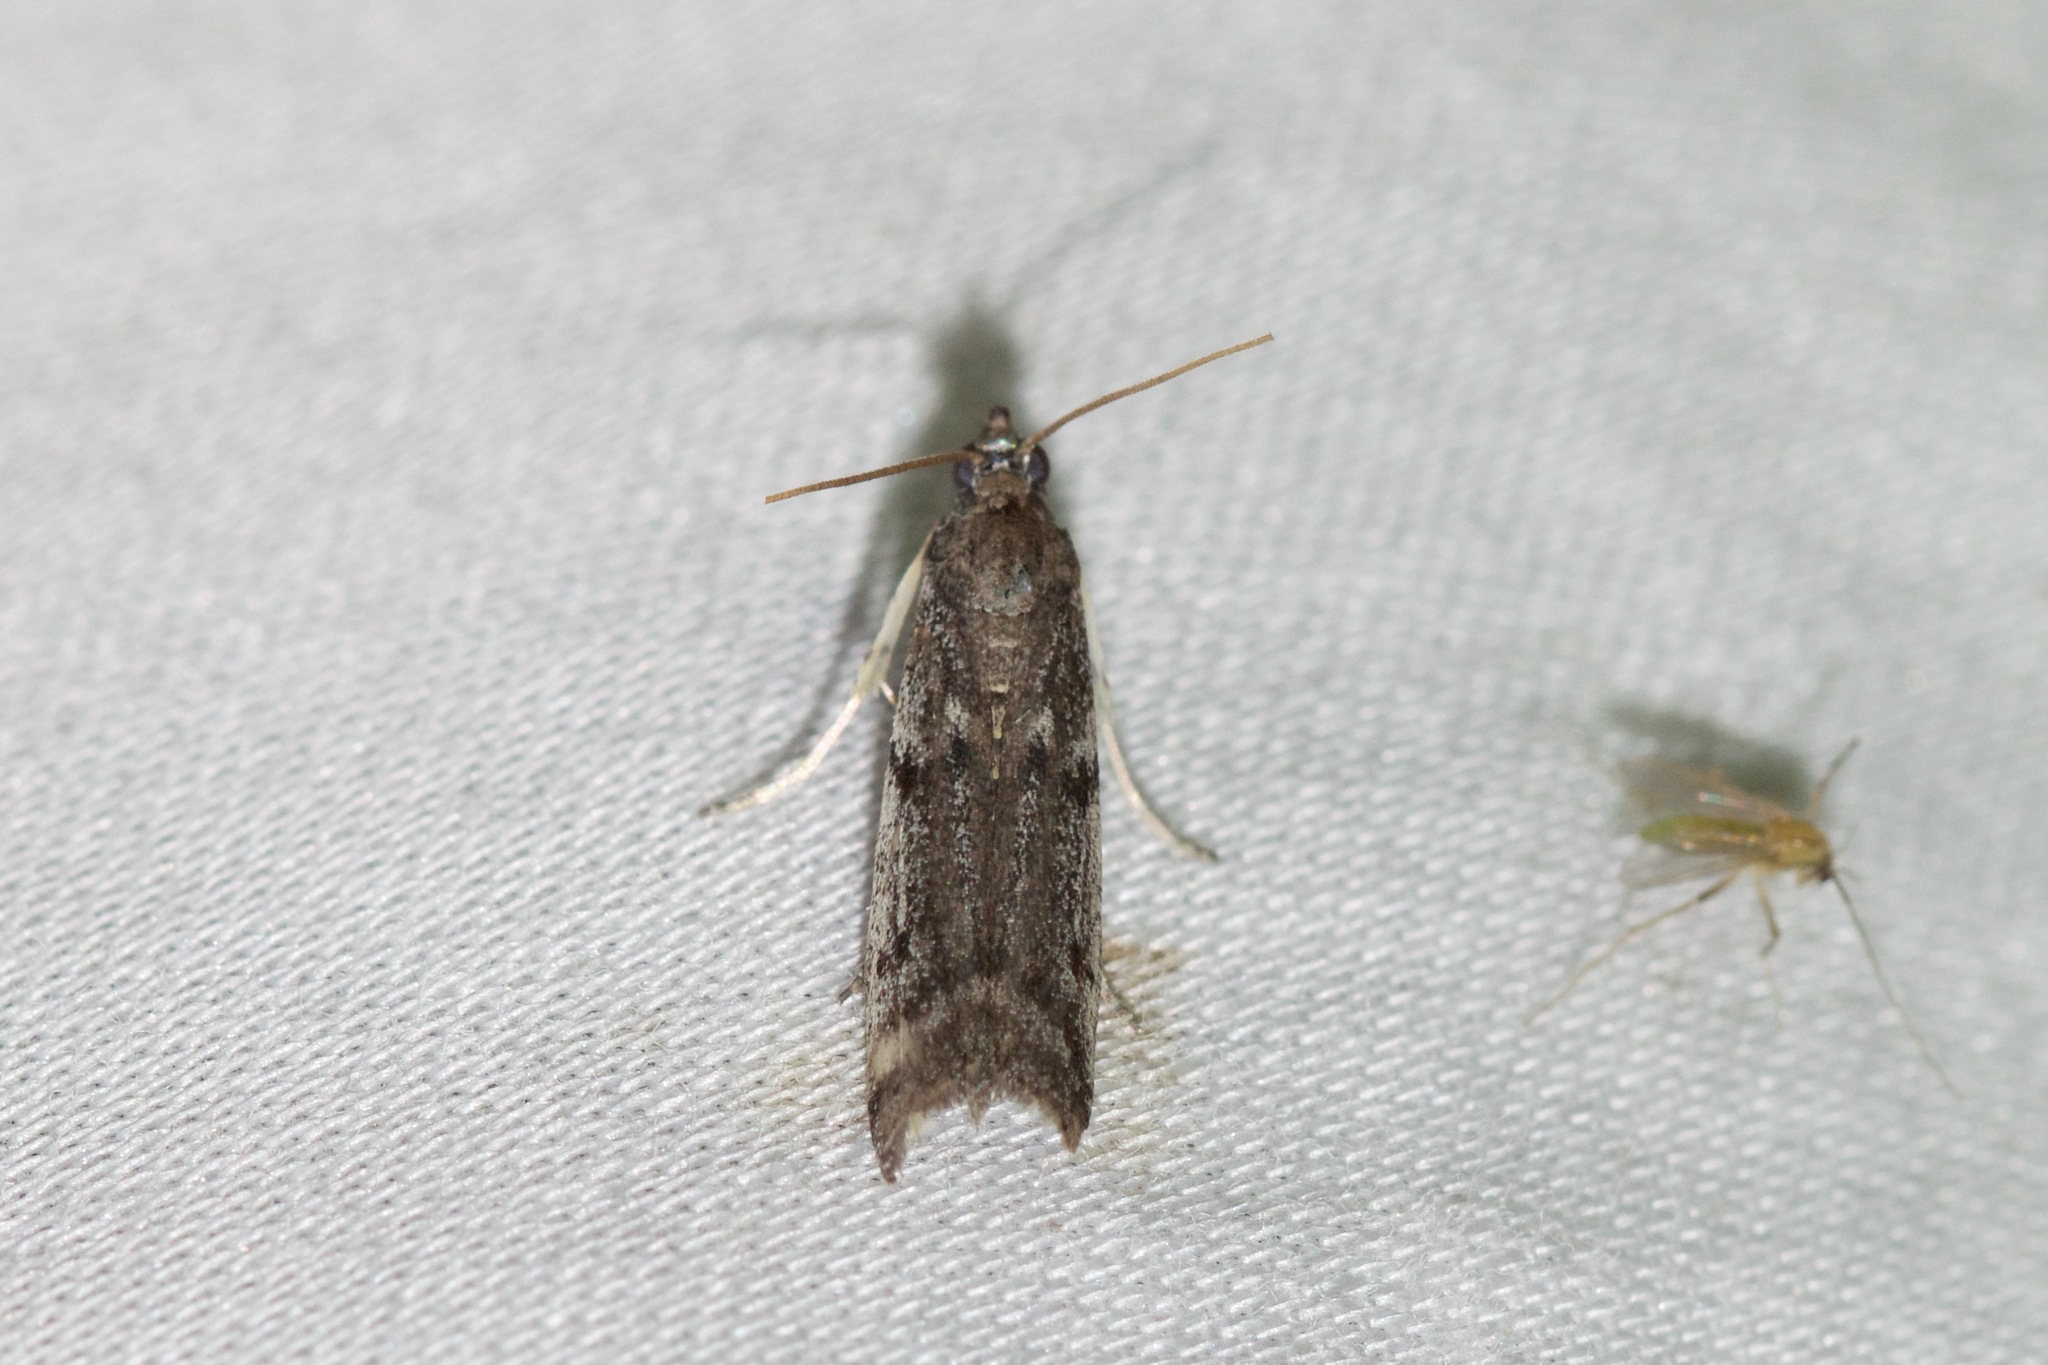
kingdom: Animalia
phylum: Arthropoda
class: Insecta
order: Lepidoptera
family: Pyralidae
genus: Phycitodes
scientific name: Phycitodes mucidellus
